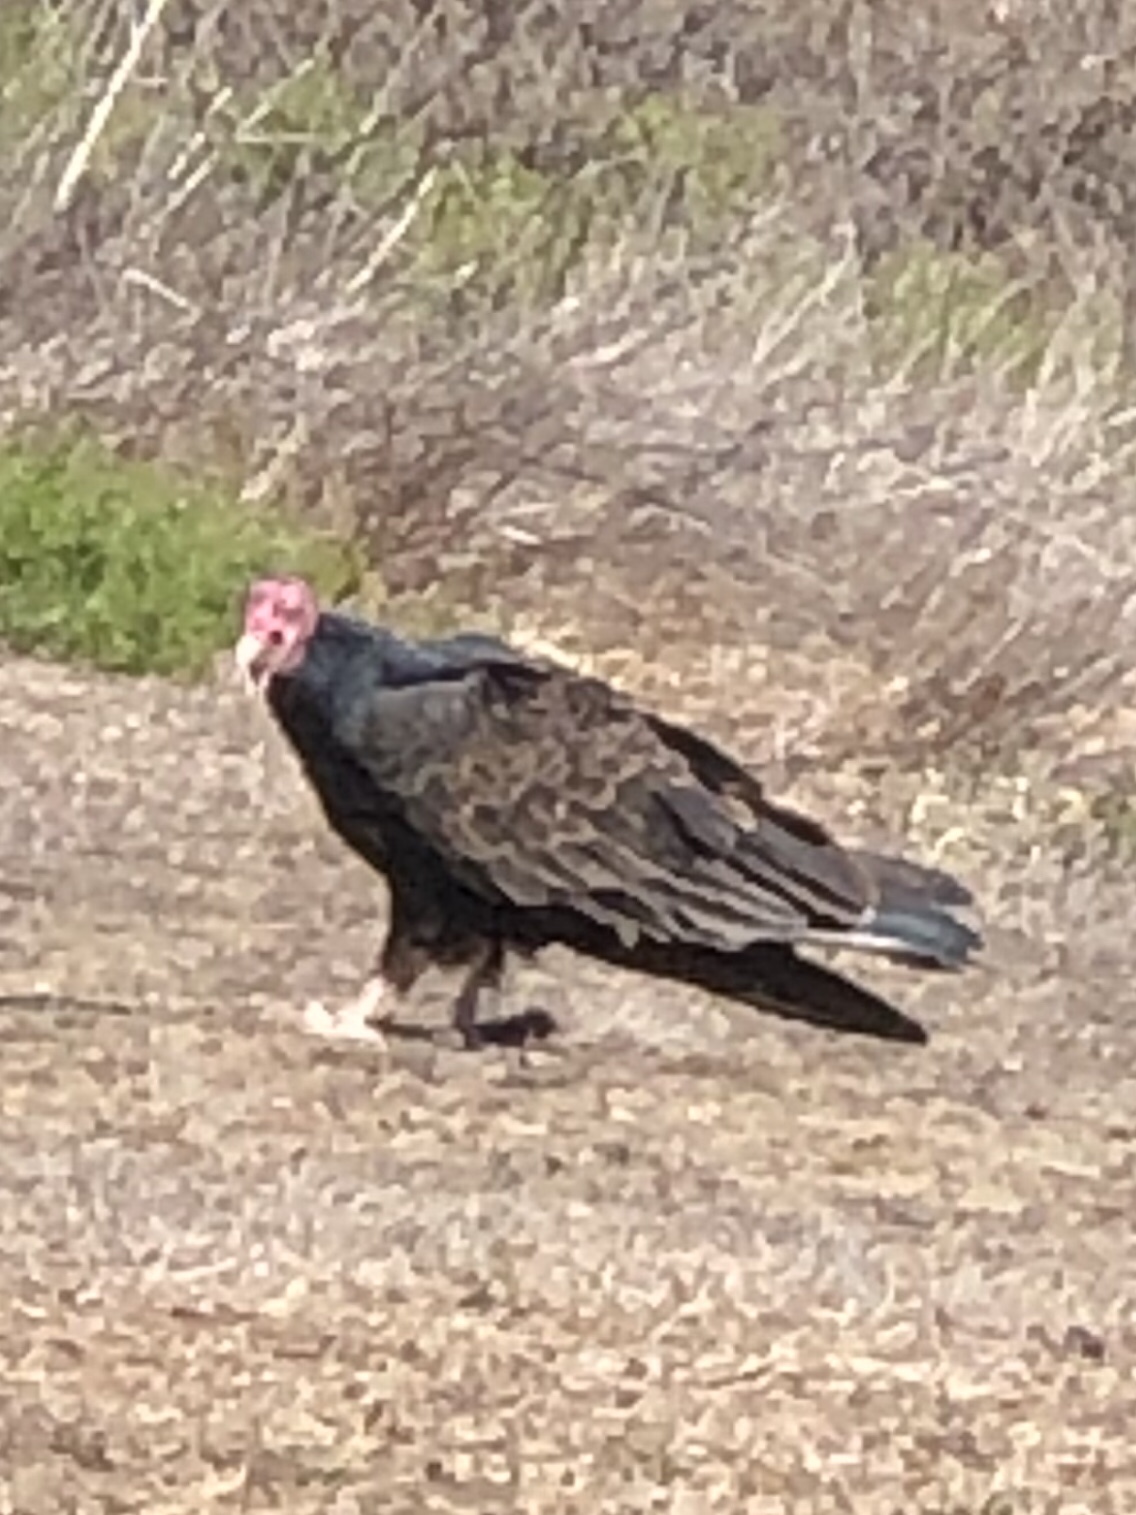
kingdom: Animalia
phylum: Chordata
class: Aves
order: Accipitriformes
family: Cathartidae
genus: Cathartes
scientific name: Cathartes aura
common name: Turkey vulture
